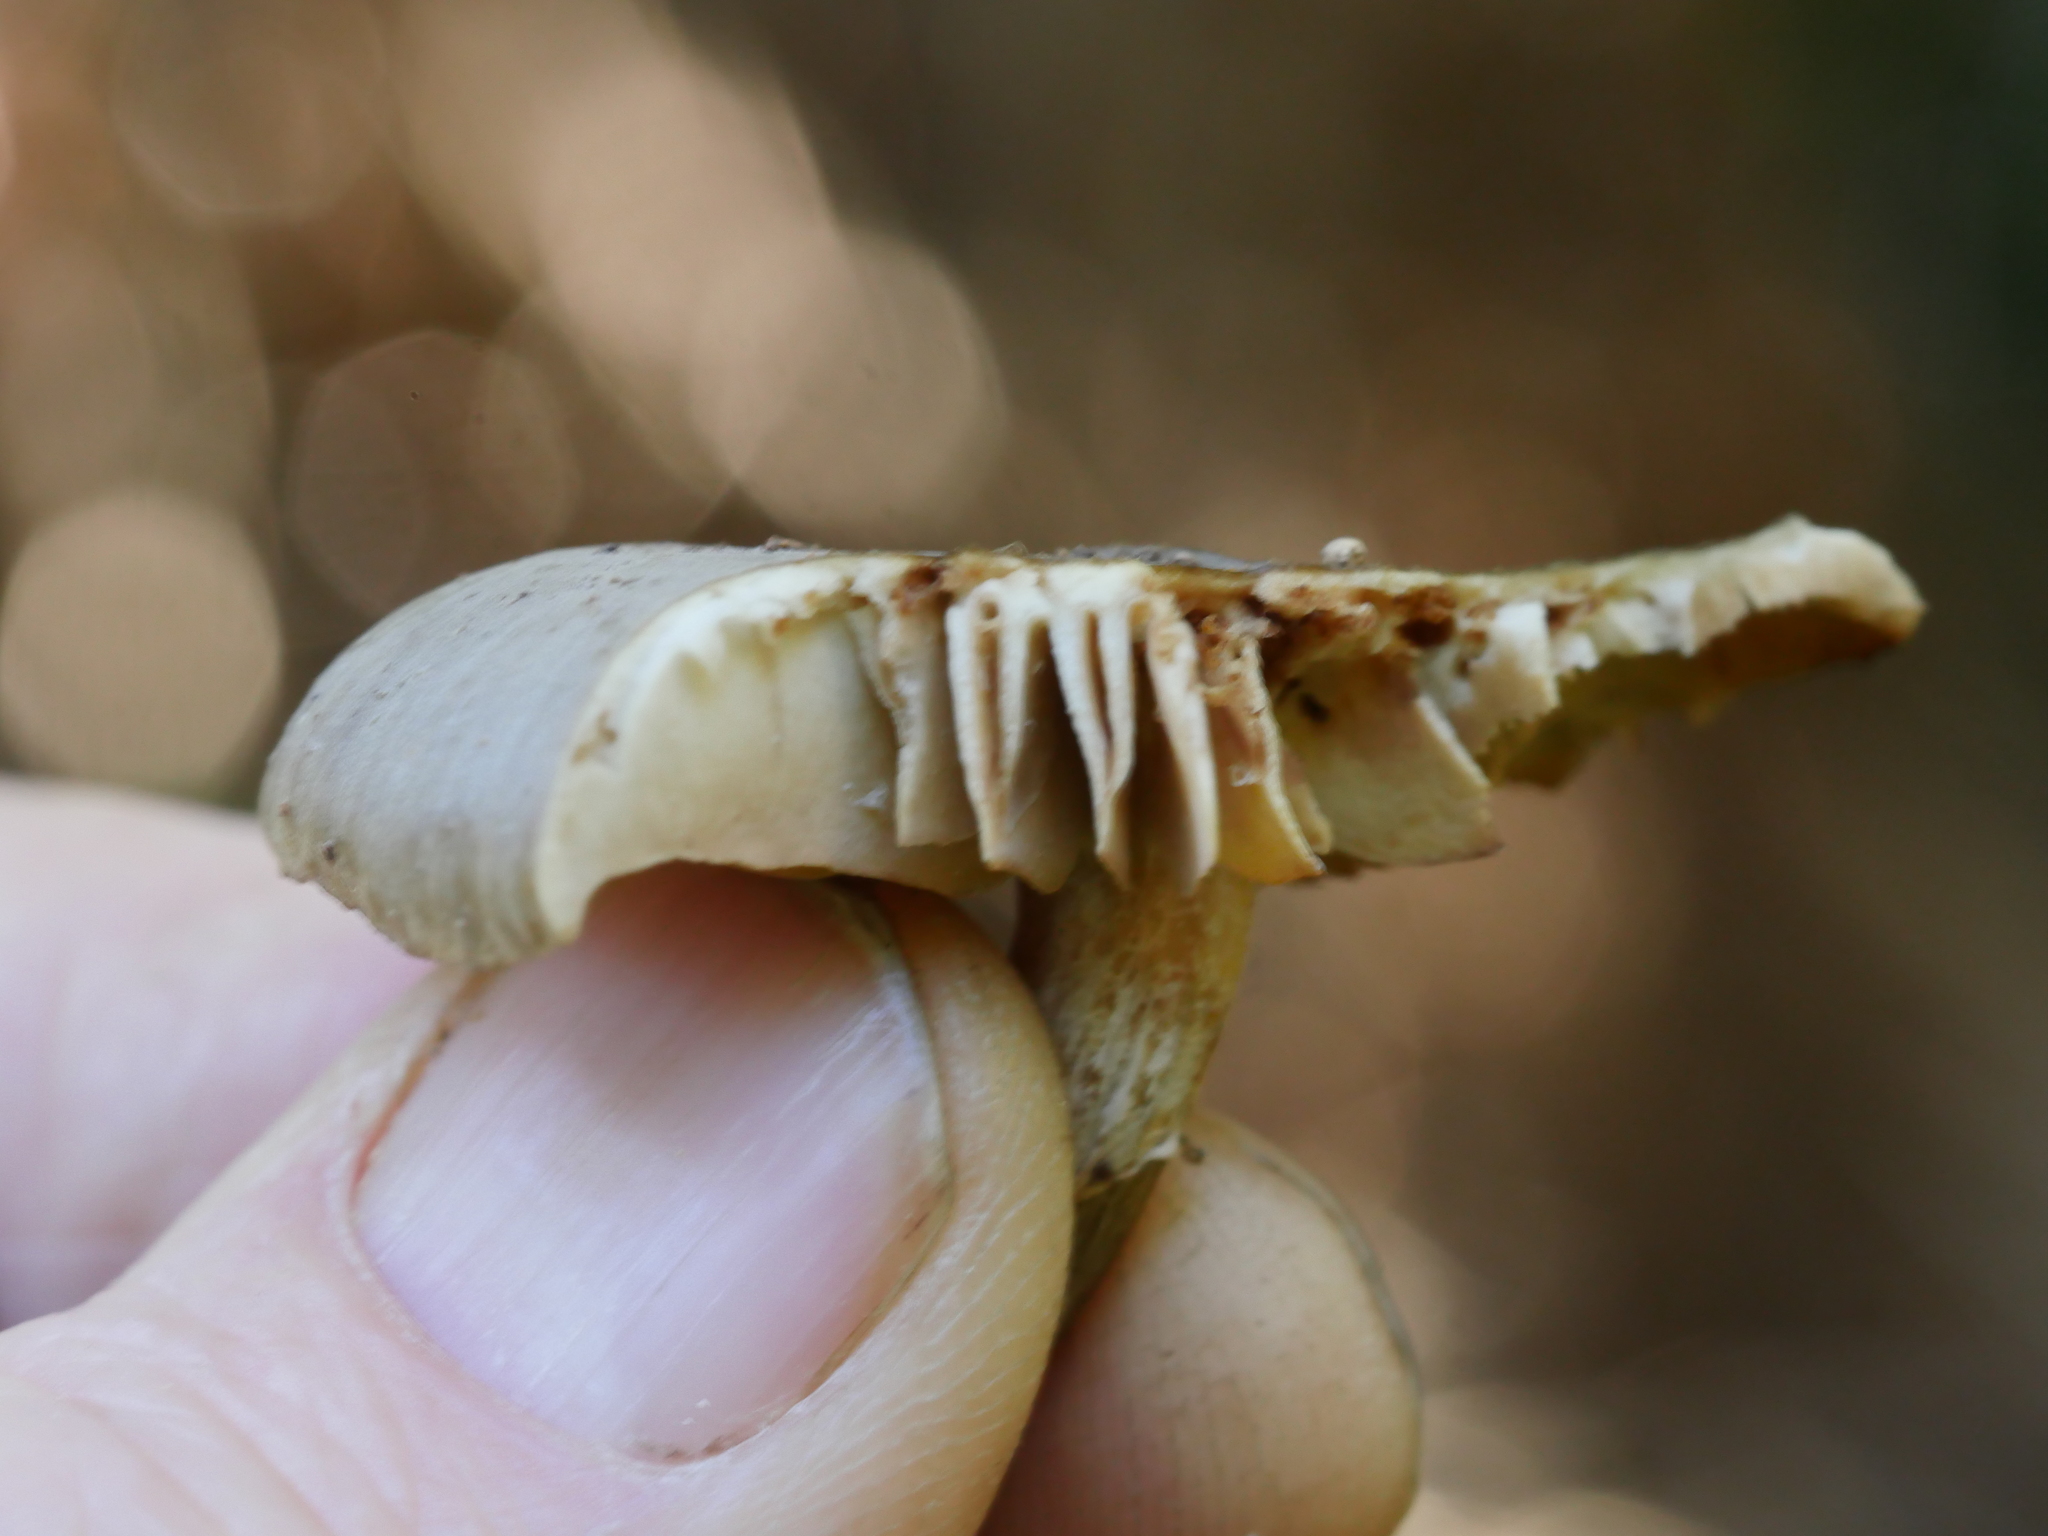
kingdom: Fungi
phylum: Basidiomycota
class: Agaricomycetes
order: Agaricales
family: Physalacriaceae
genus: Armillaria
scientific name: Armillaria novae-zelandiae
